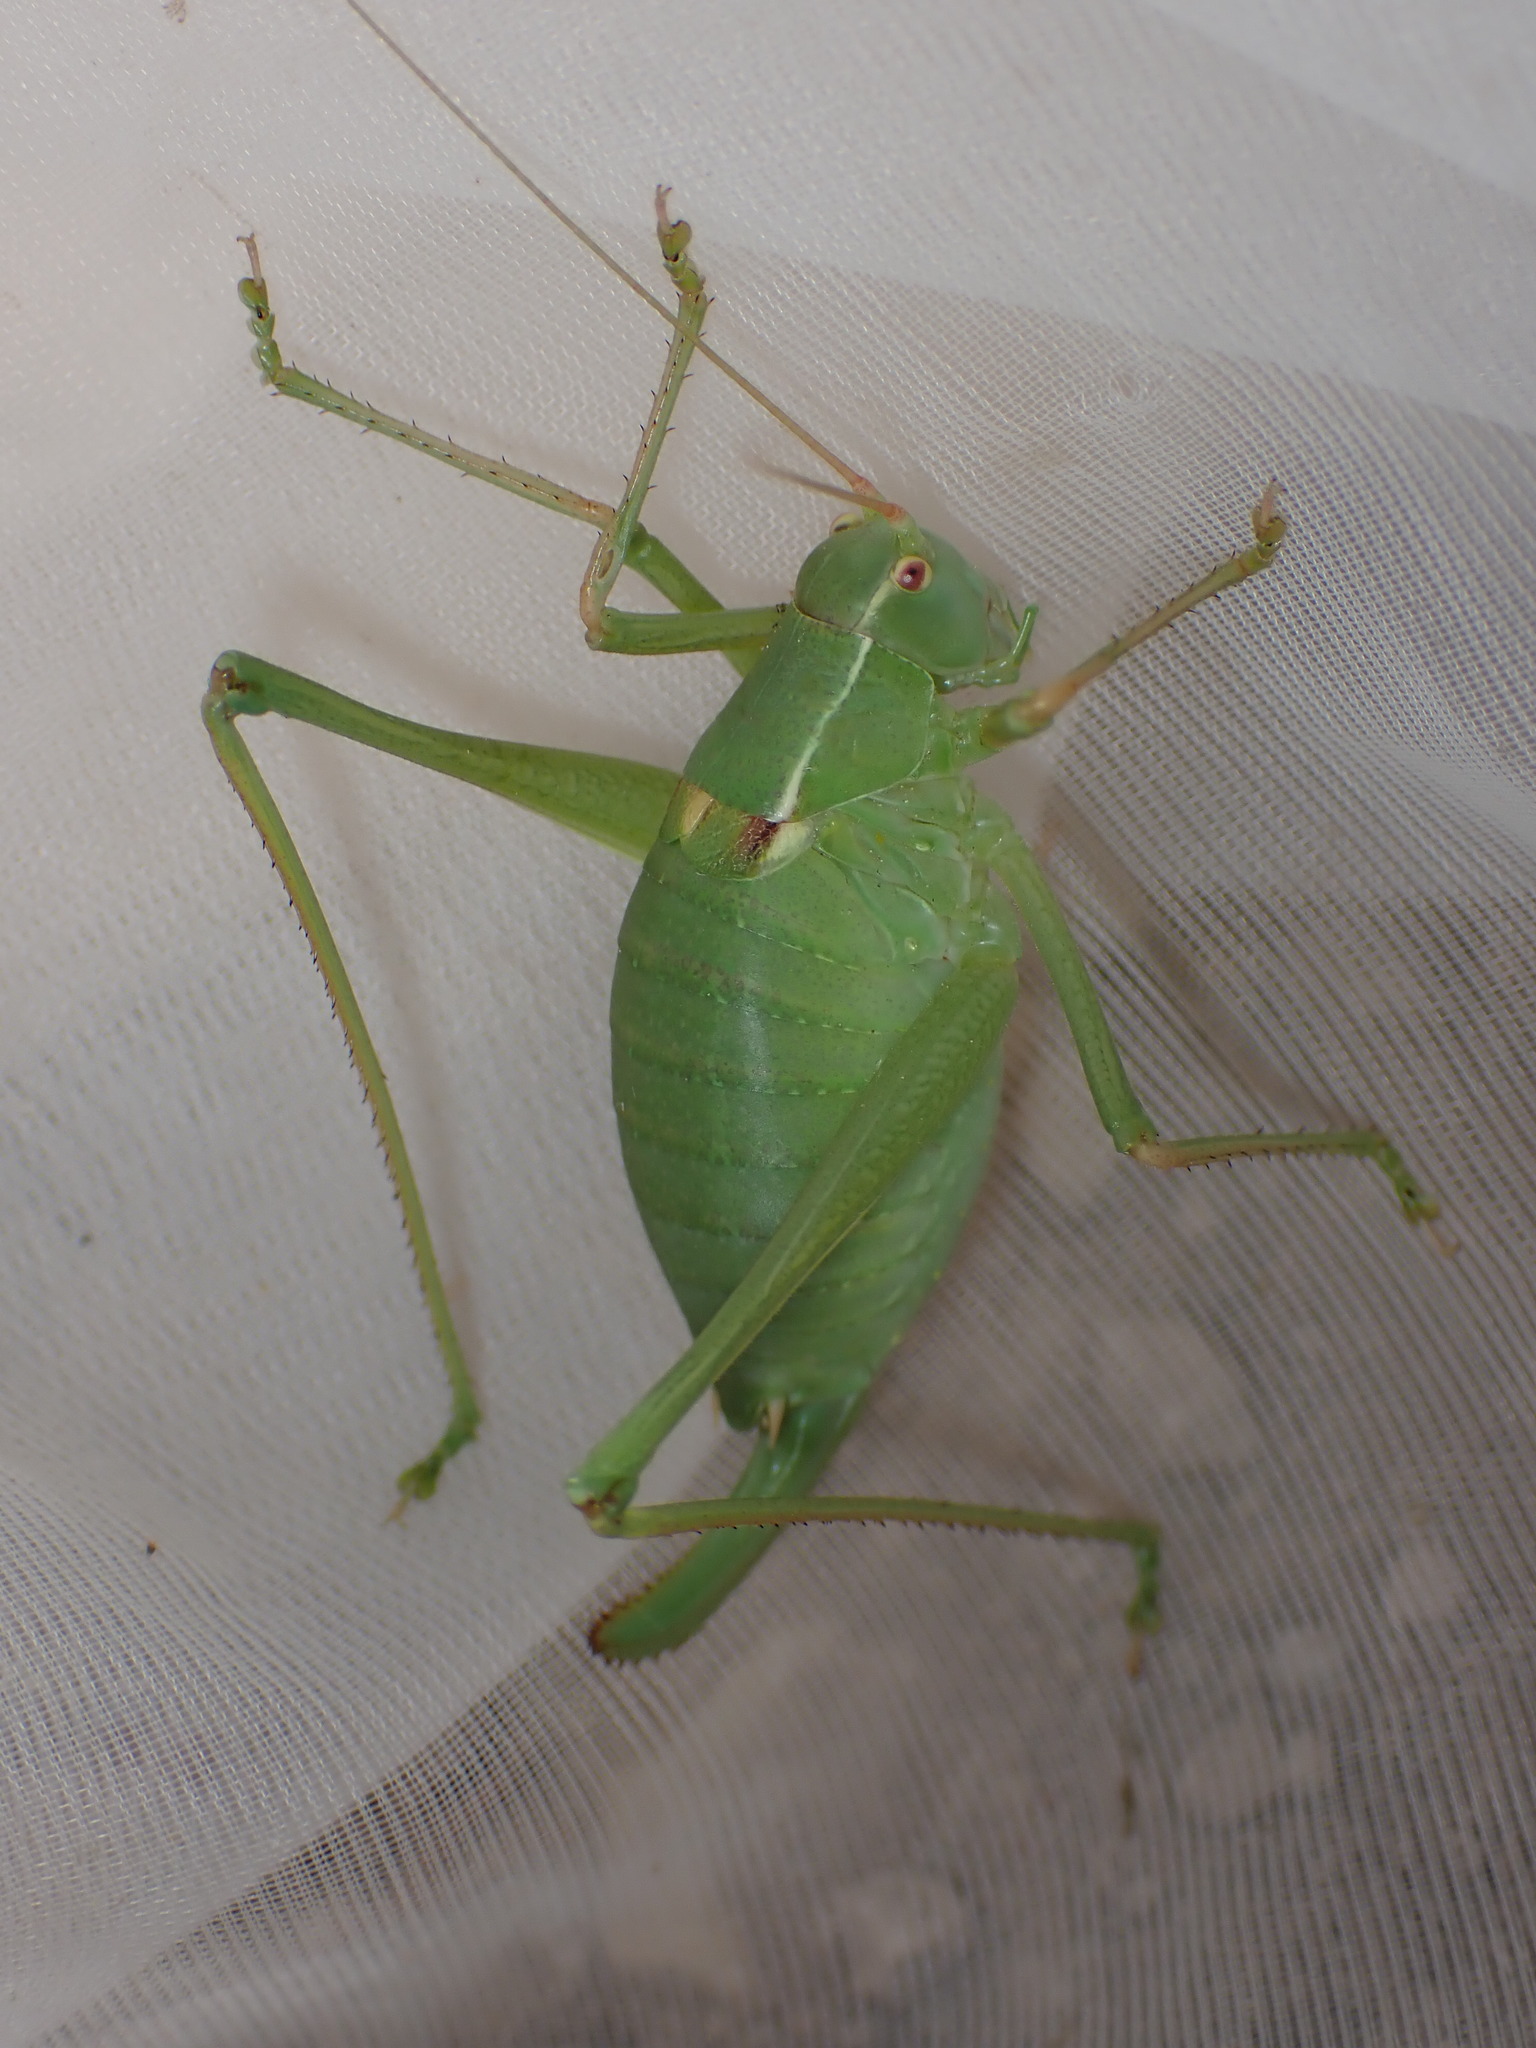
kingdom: Animalia
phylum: Arthropoda
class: Insecta
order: Orthoptera
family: Tettigoniidae
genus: Barbitistes
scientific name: Barbitistes fischeri
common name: Southern saw-tailed bush-cricket
